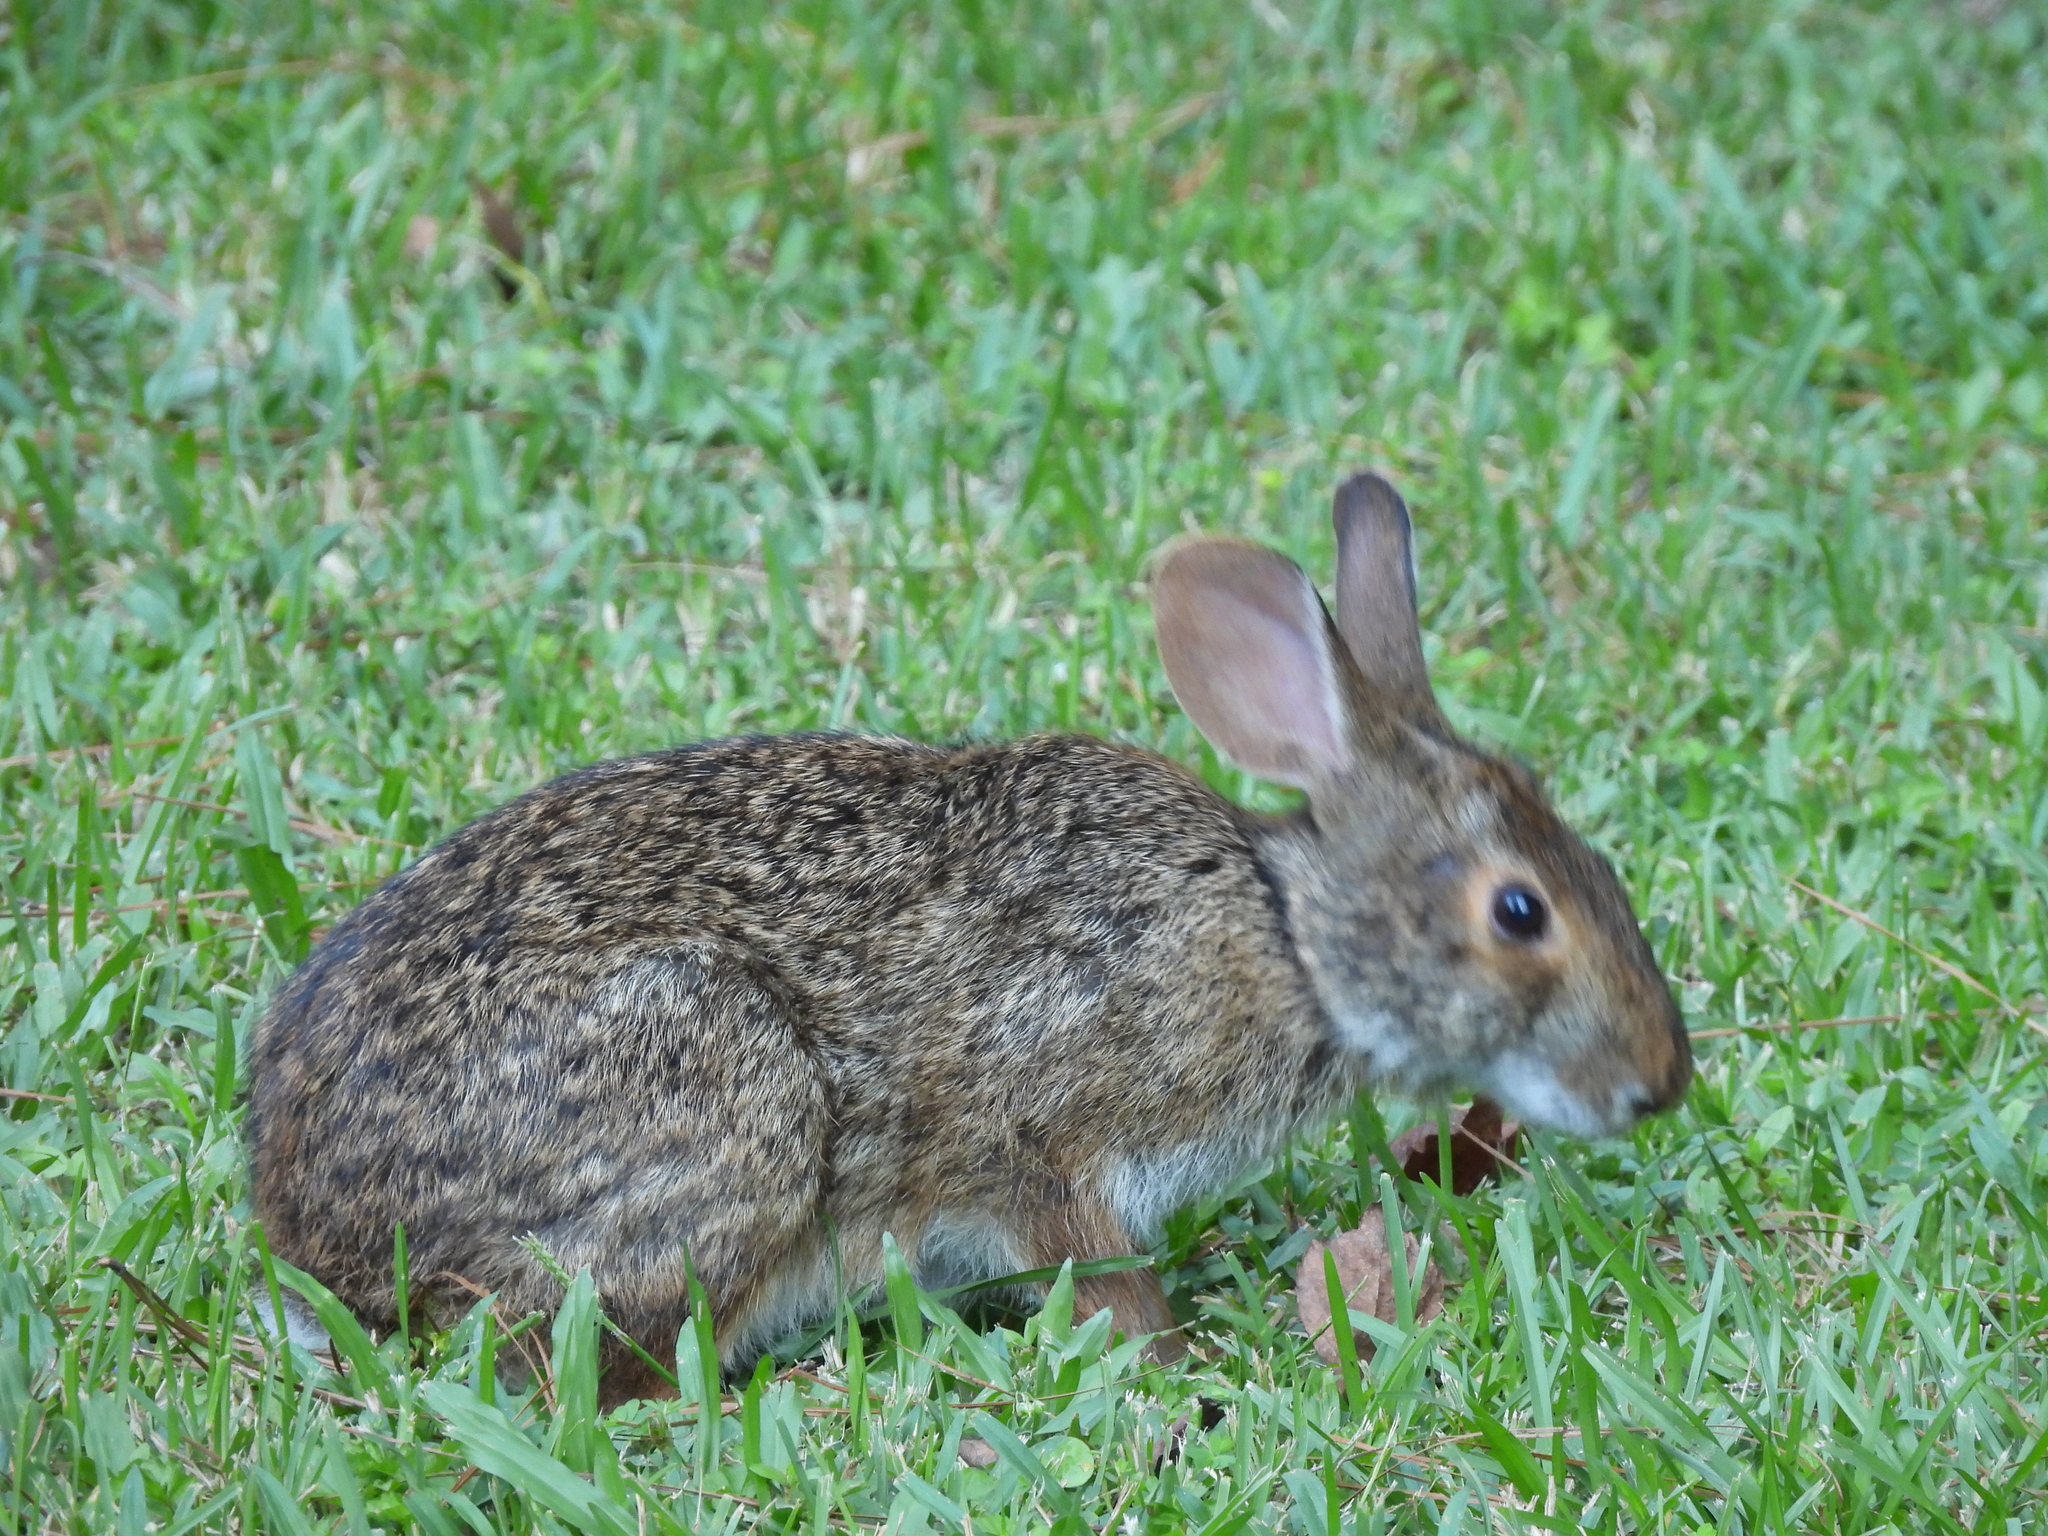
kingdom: Animalia
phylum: Chordata
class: Mammalia
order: Lagomorpha
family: Leporidae
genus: Sylvilagus
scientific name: Sylvilagus aquaticus
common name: Swamp rabbit
